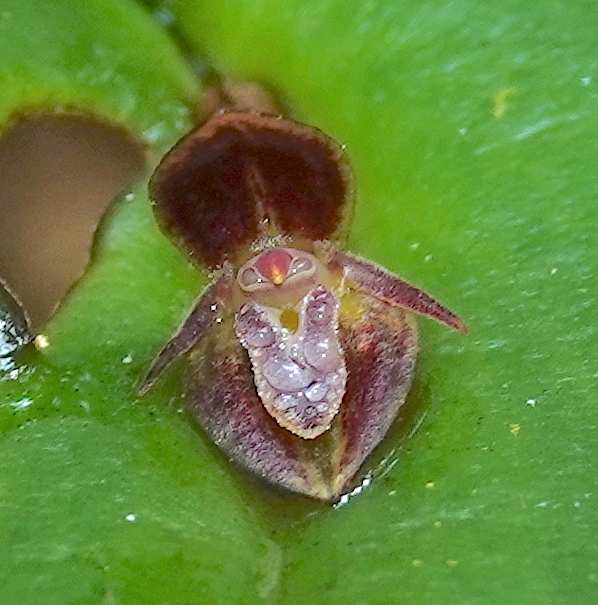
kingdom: Plantae
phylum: Tracheophyta
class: Liliopsida
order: Asparagales
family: Orchidaceae
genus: Pleurothallis
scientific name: Pleurothallis matudana
